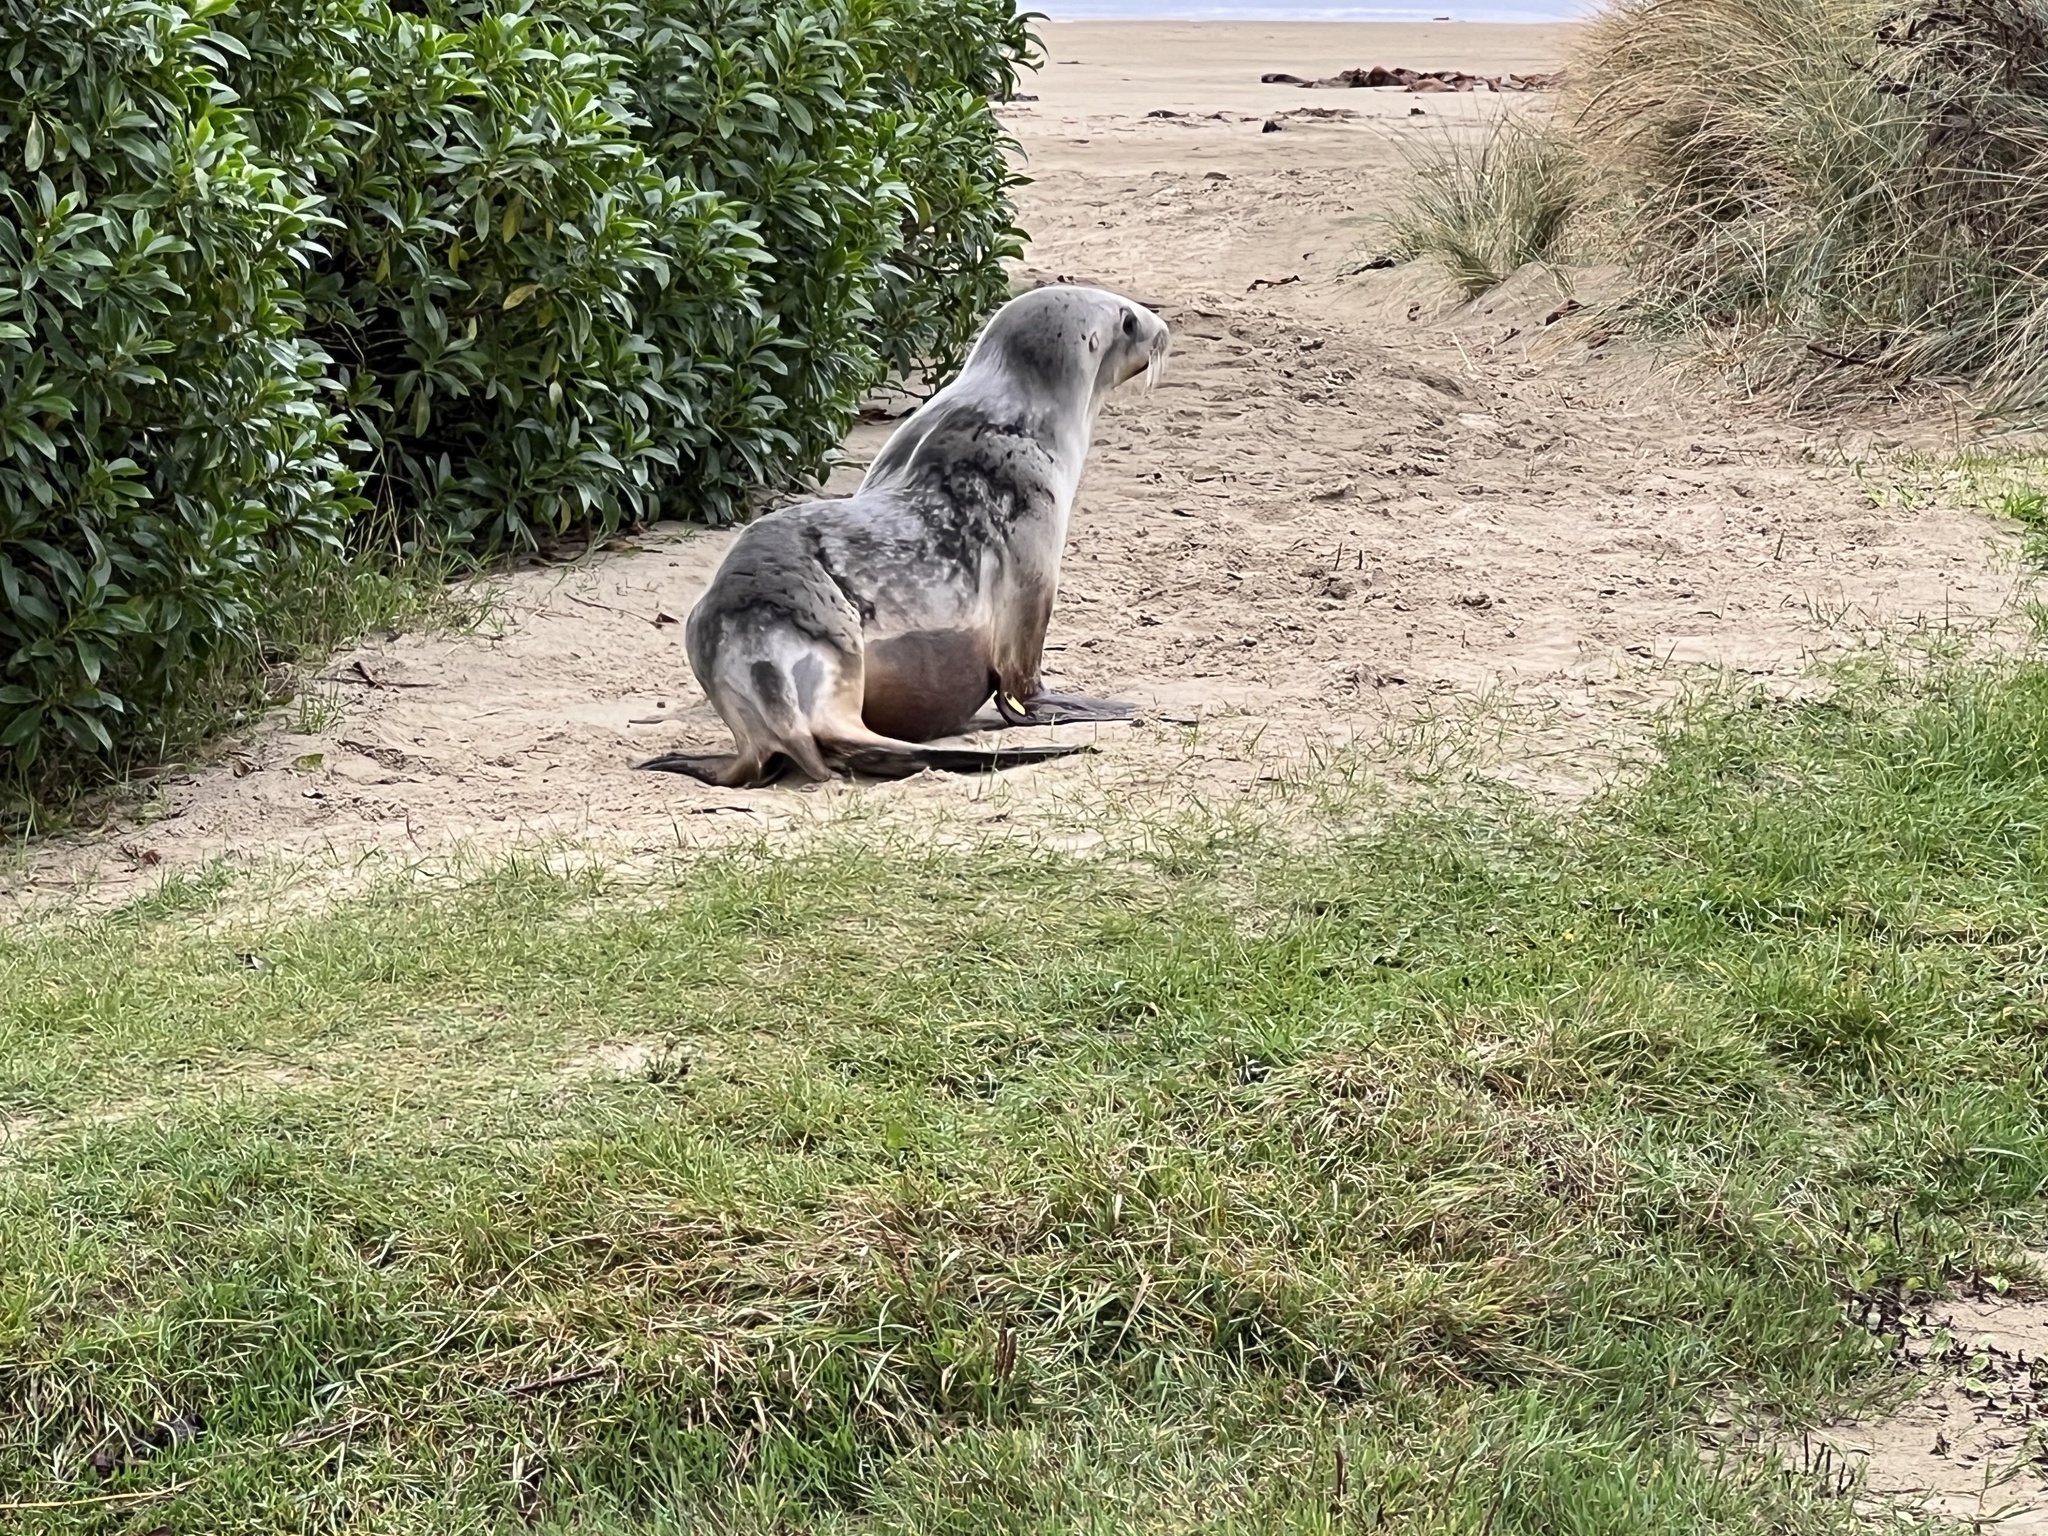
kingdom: Animalia
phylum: Chordata
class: Mammalia
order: Carnivora
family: Otariidae
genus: Phocarctos
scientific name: Phocarctos hookeri
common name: New zealand sea lion
